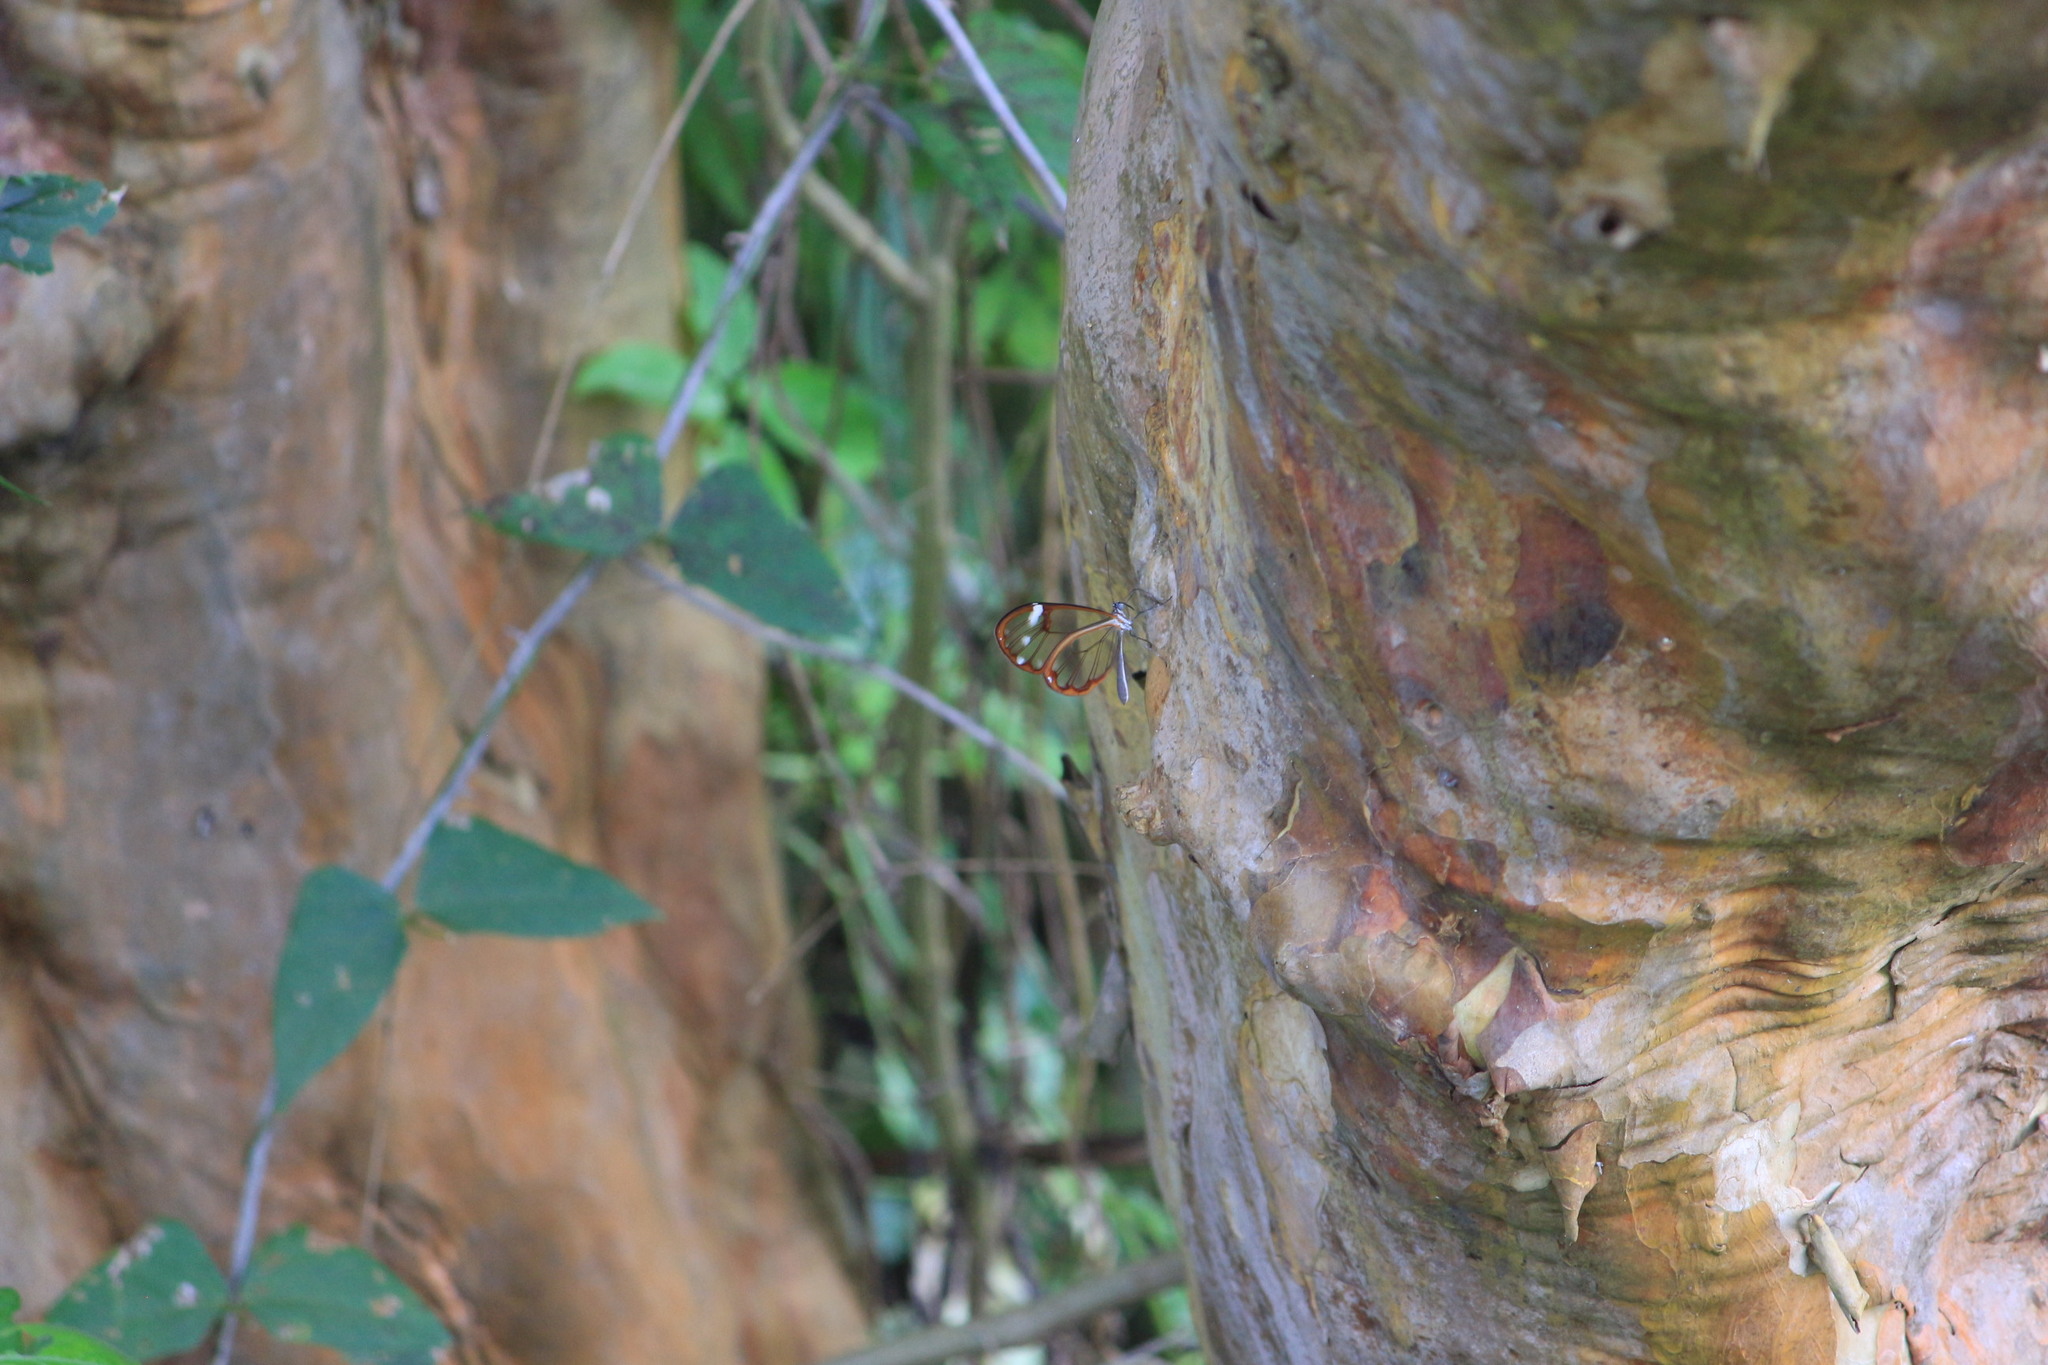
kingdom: Animalia
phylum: Arthropoda
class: Insecta
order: Lepidoptera
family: Nymphalidae
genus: Greta
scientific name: Greta annette
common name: White-spotted clearwing
